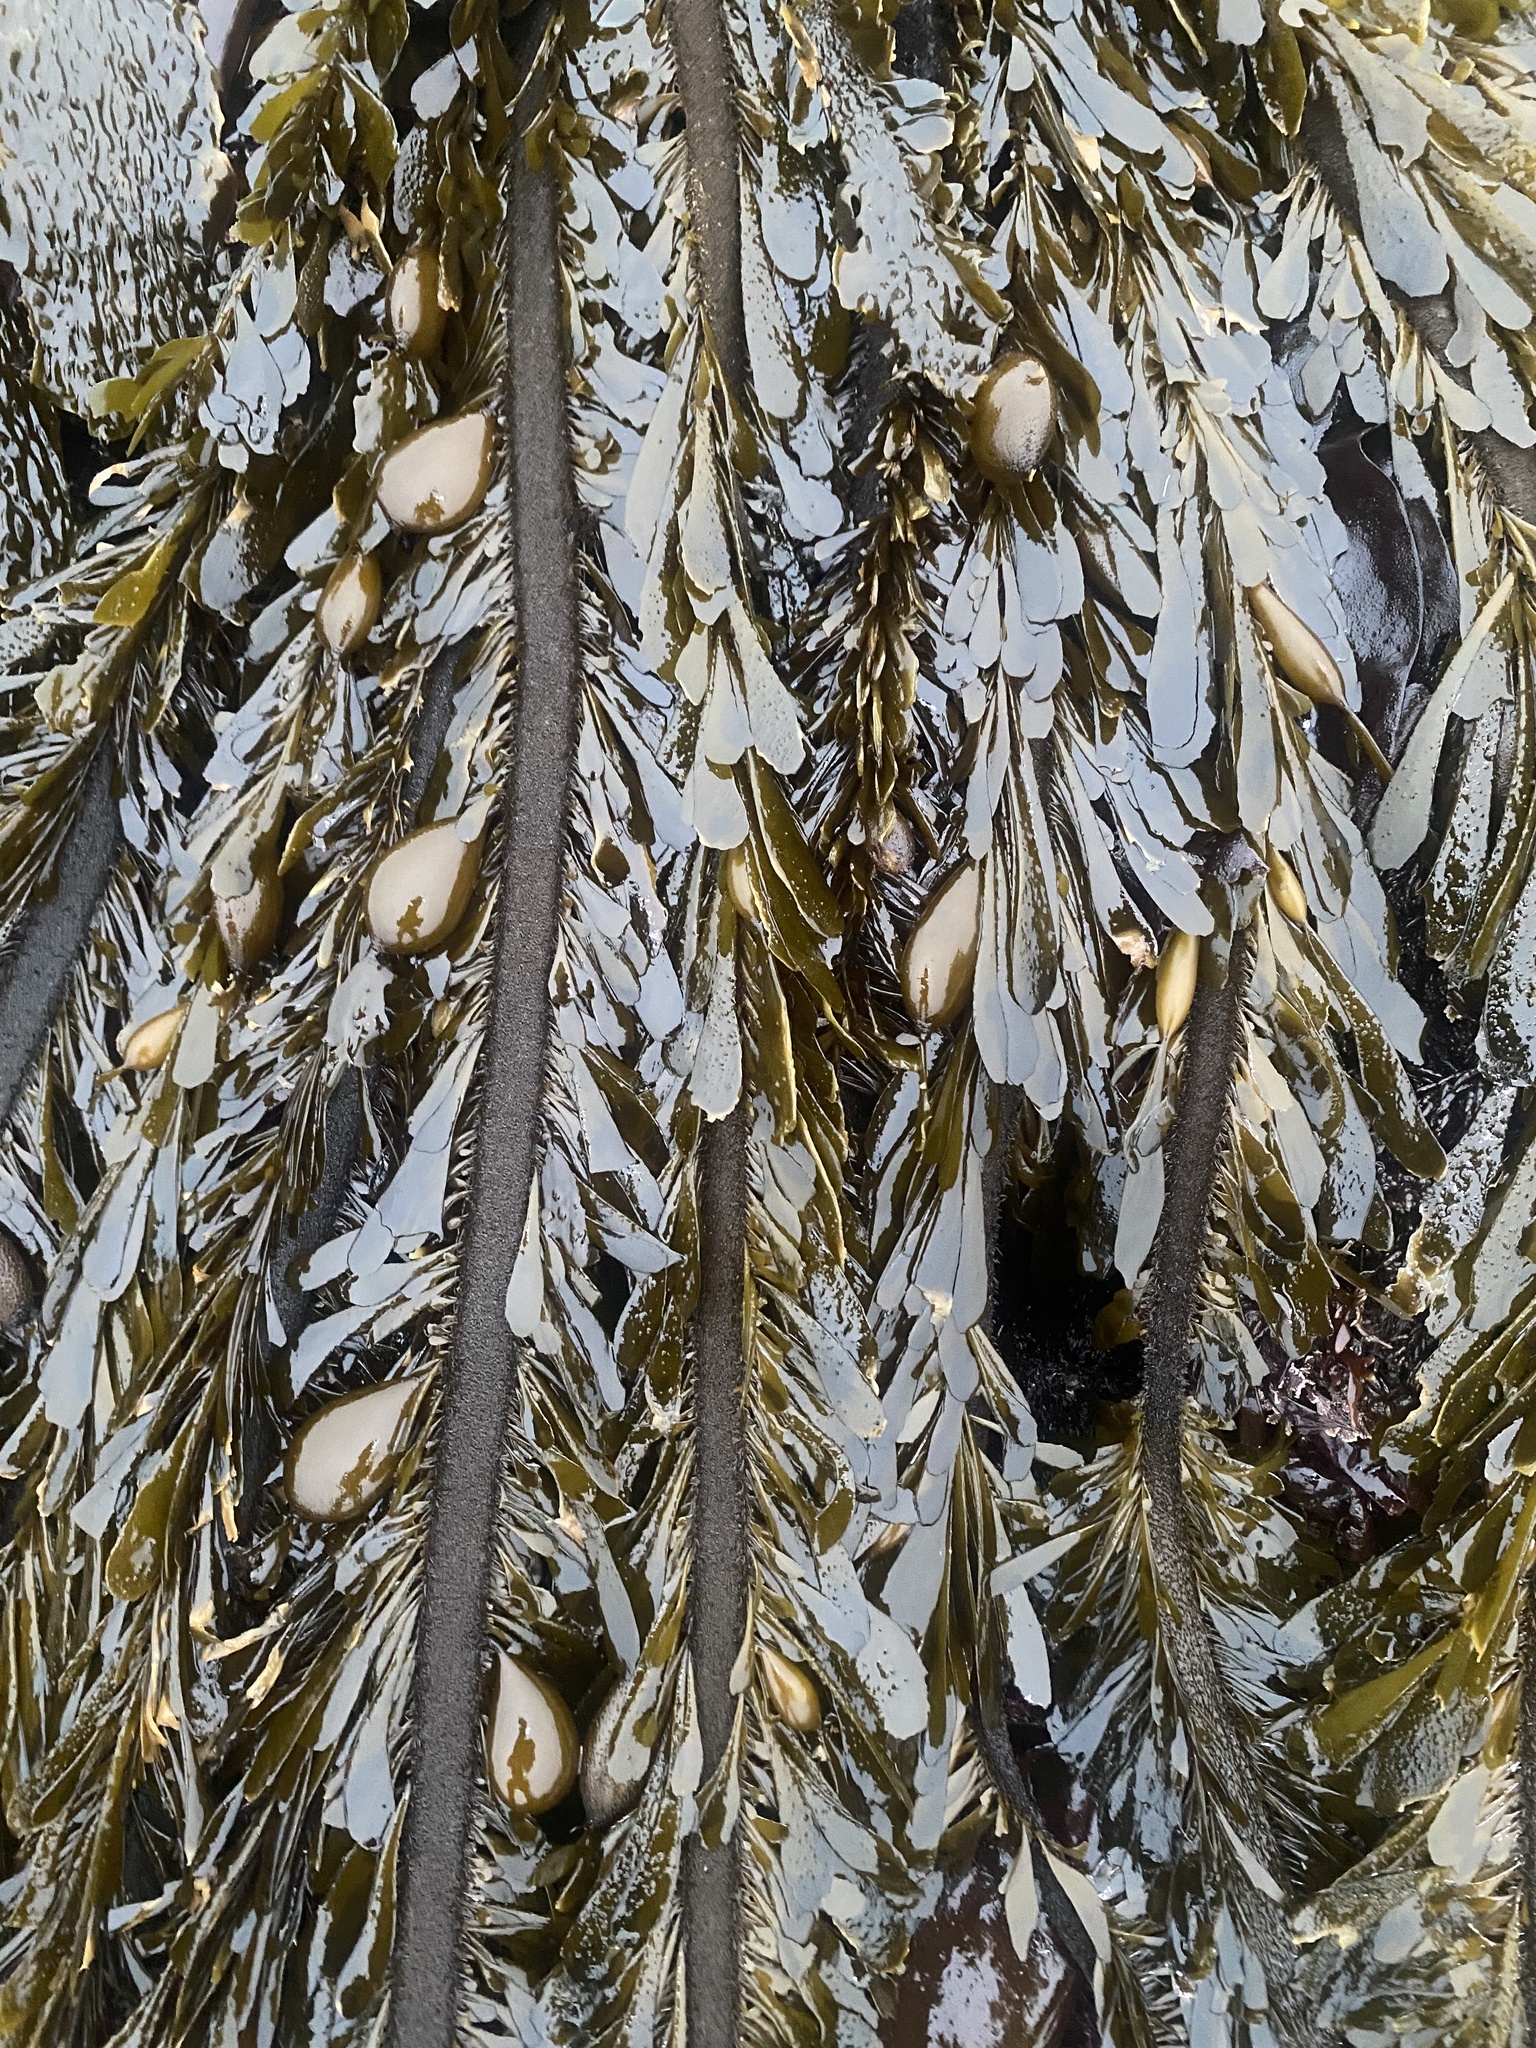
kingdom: Chromista
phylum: Ochrophyta
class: Phaeophyceae
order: Laminariales
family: Lessoniaceae
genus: Egregia
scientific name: Egregia menziesii
